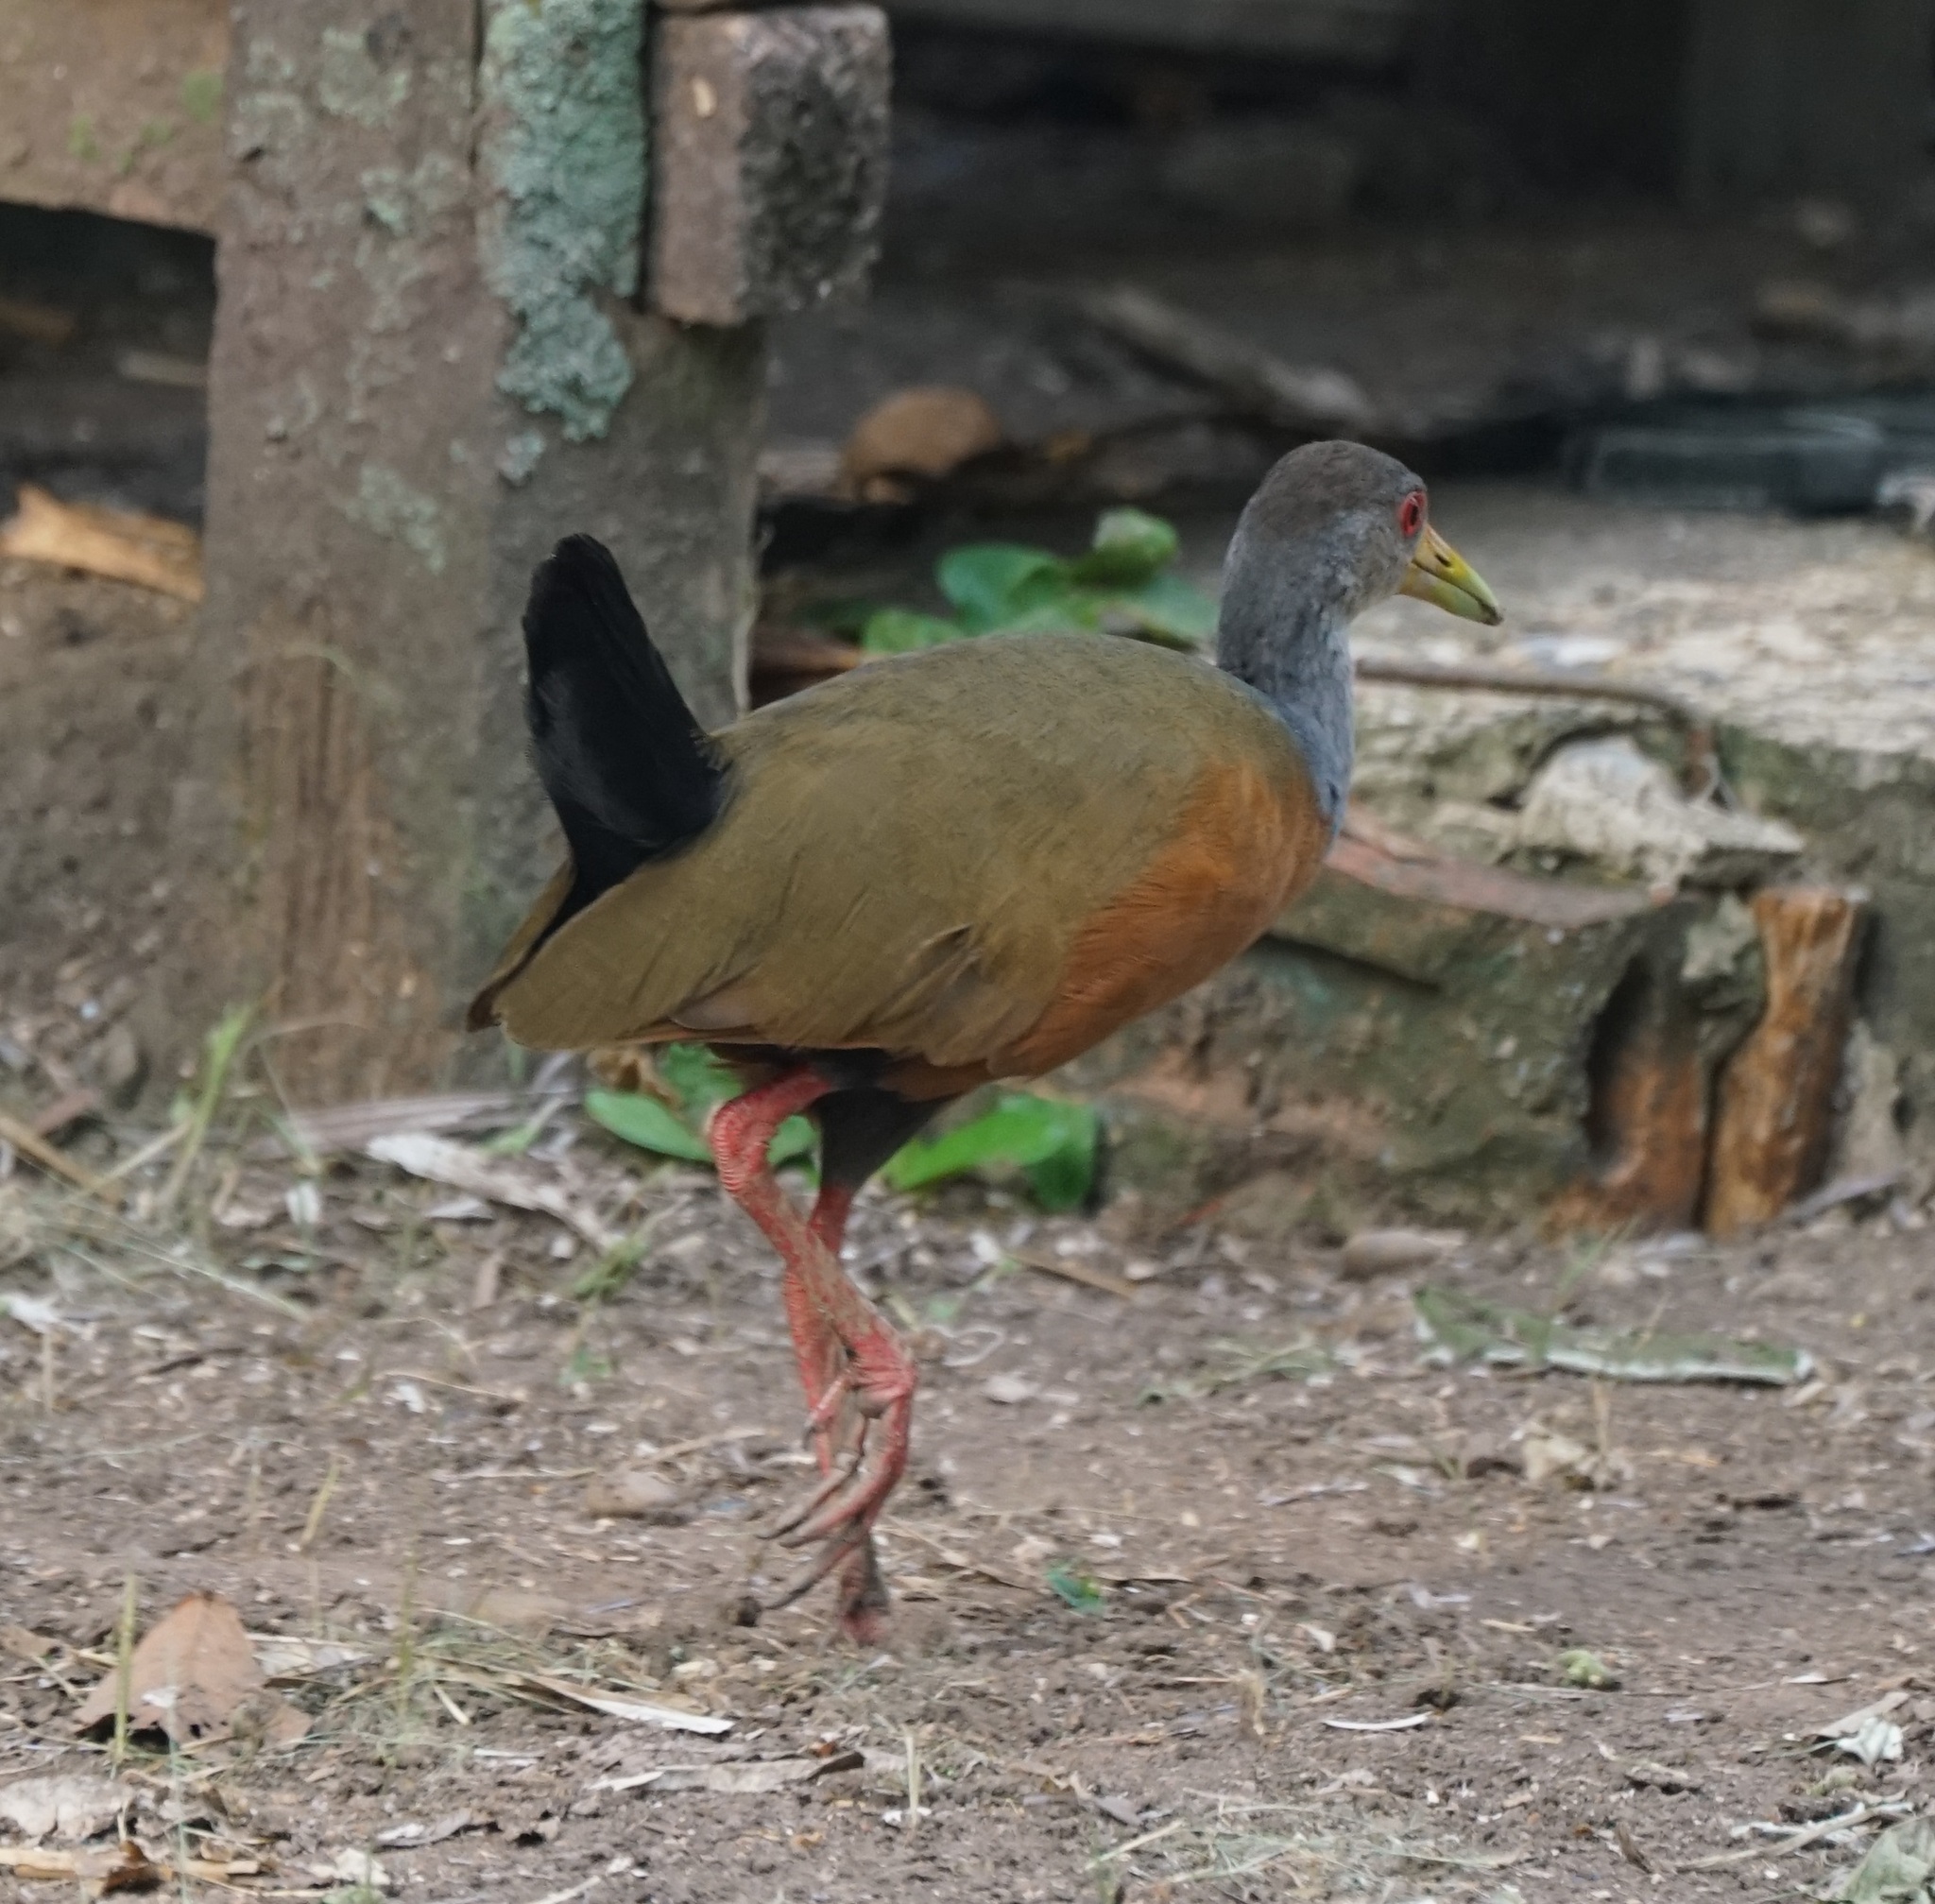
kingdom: Animalia
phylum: Chordata
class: Aves
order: Gruiformes
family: Rallidae
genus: Aramides
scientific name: Aramides cajanea
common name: Gray-necked wood-rail
